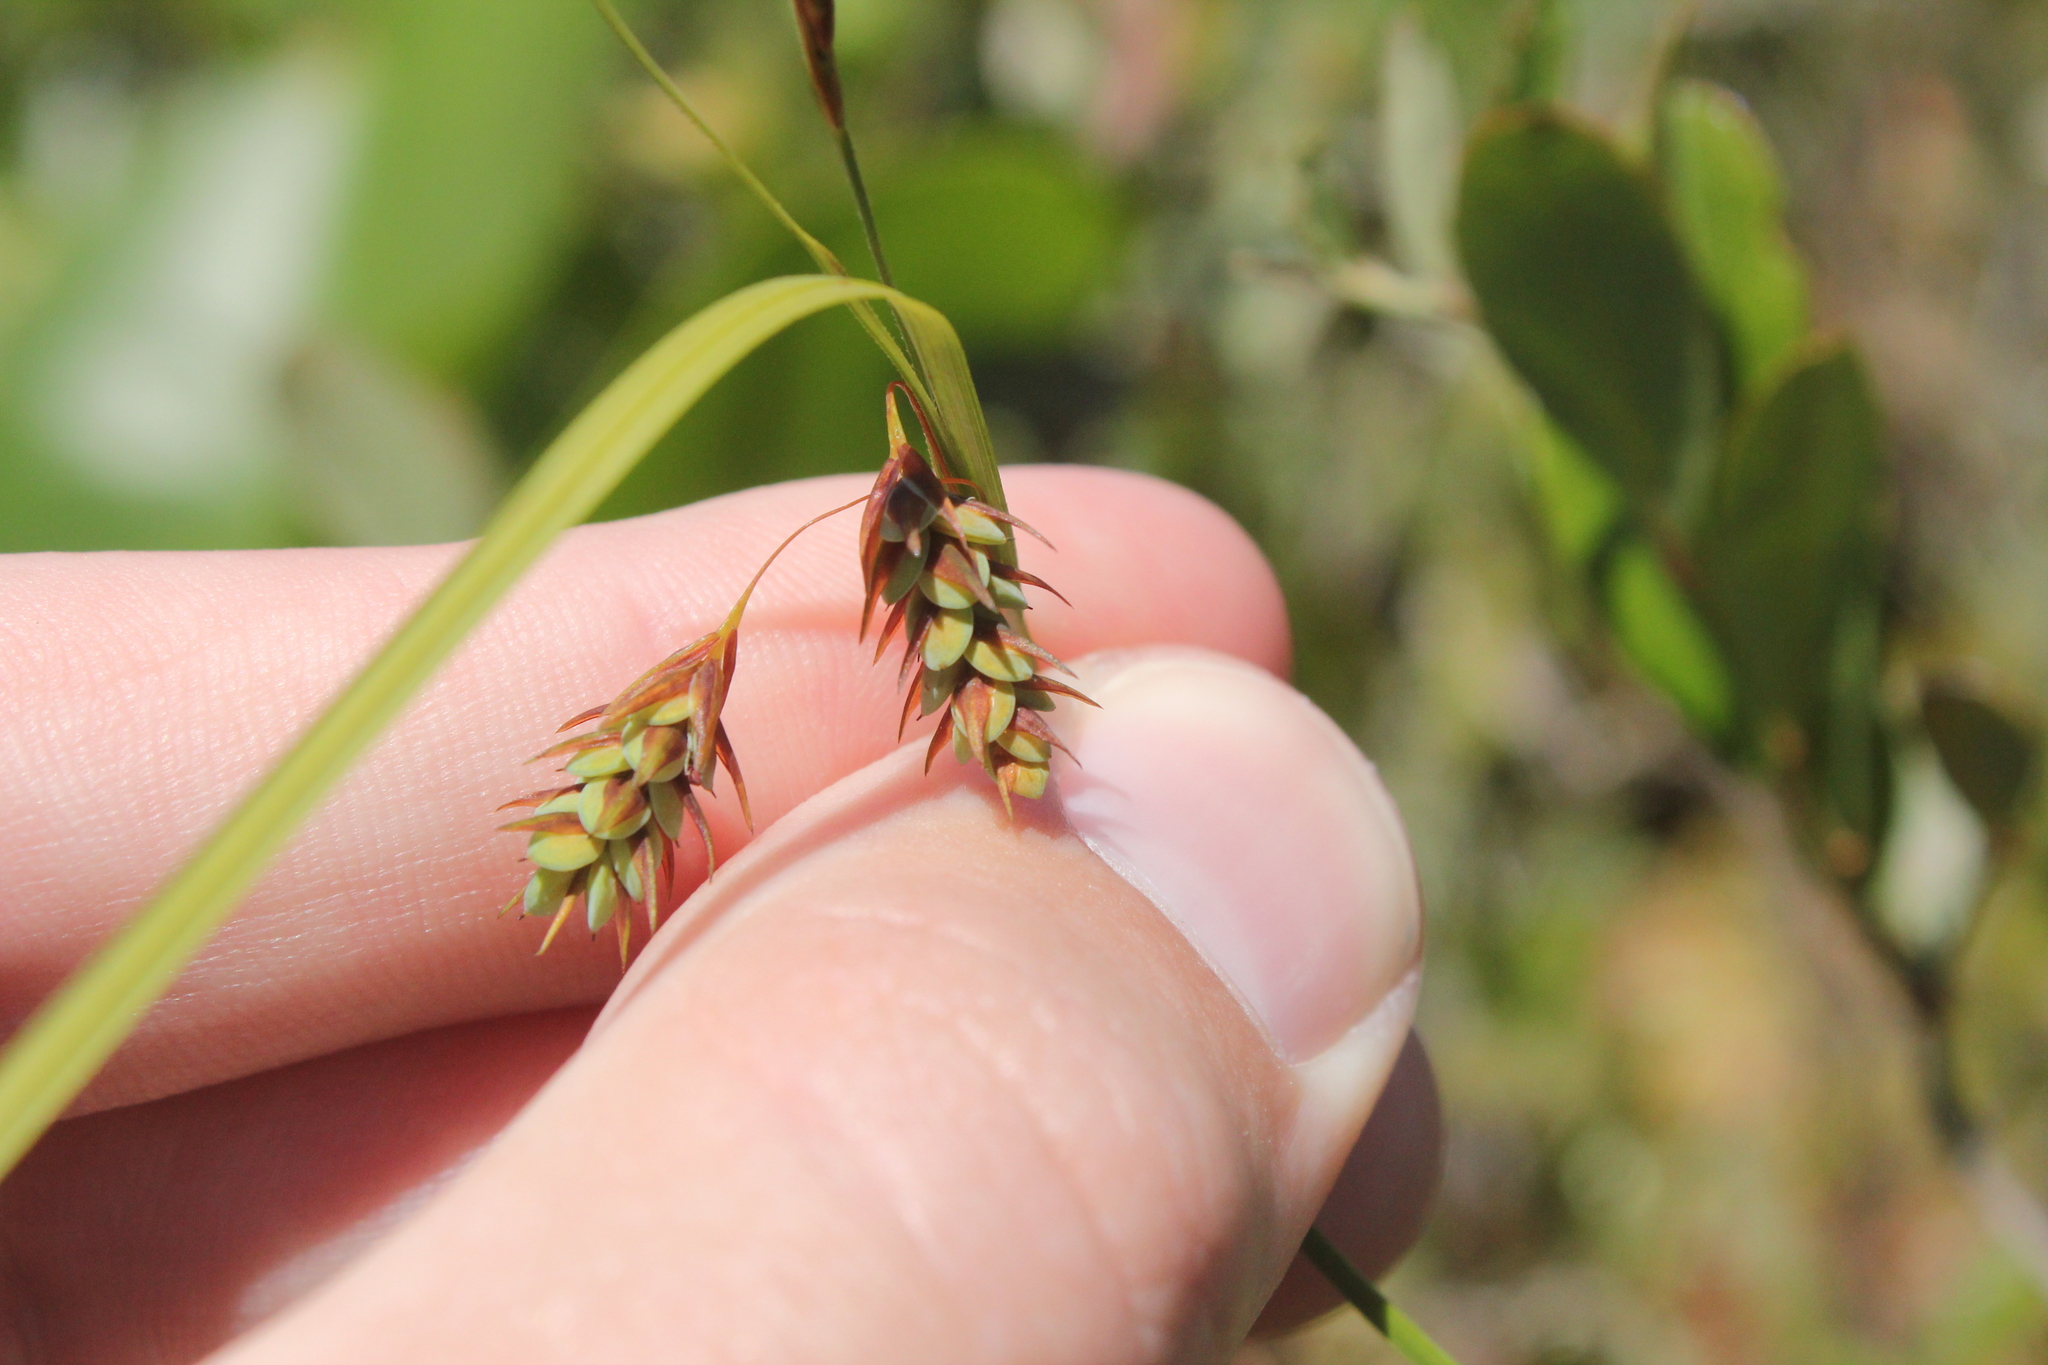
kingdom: Plantae
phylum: Tracheophyta
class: Liliopsida
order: Poales
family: Cyperaceae
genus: Carex
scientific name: Carex magellanica
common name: Bog sedge
